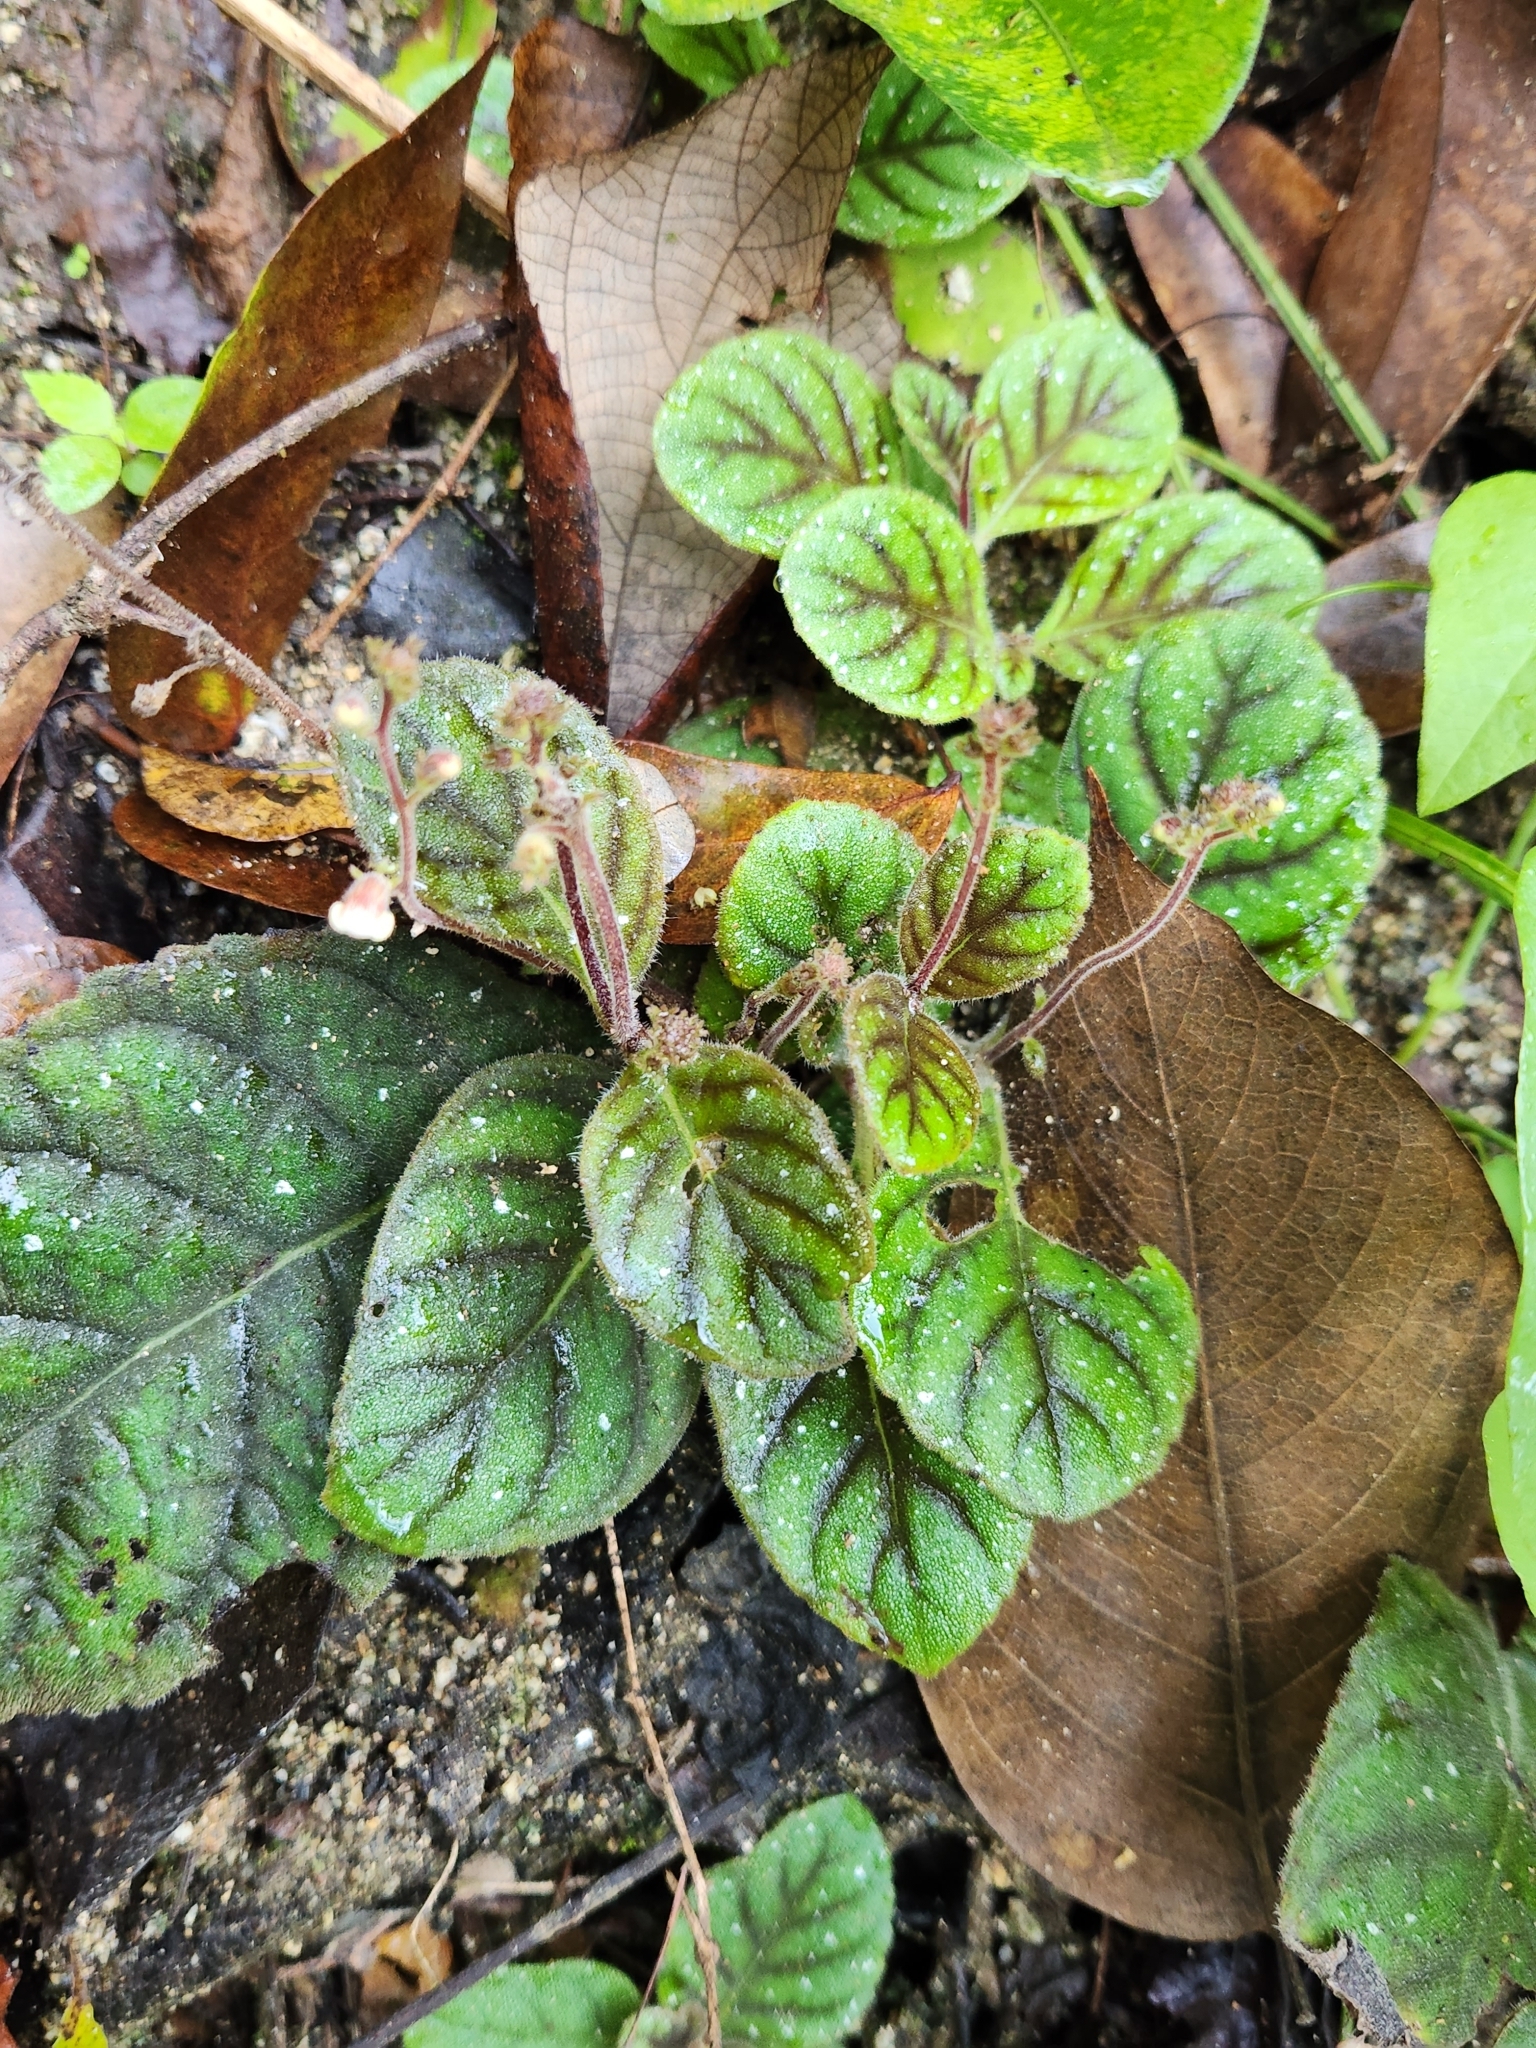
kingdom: Plantae
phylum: Tracheophyta
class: Magnoliopsida
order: Lamiales
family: Gesneriaceae
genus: Gloxinia
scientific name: Gloxinia erinoides
